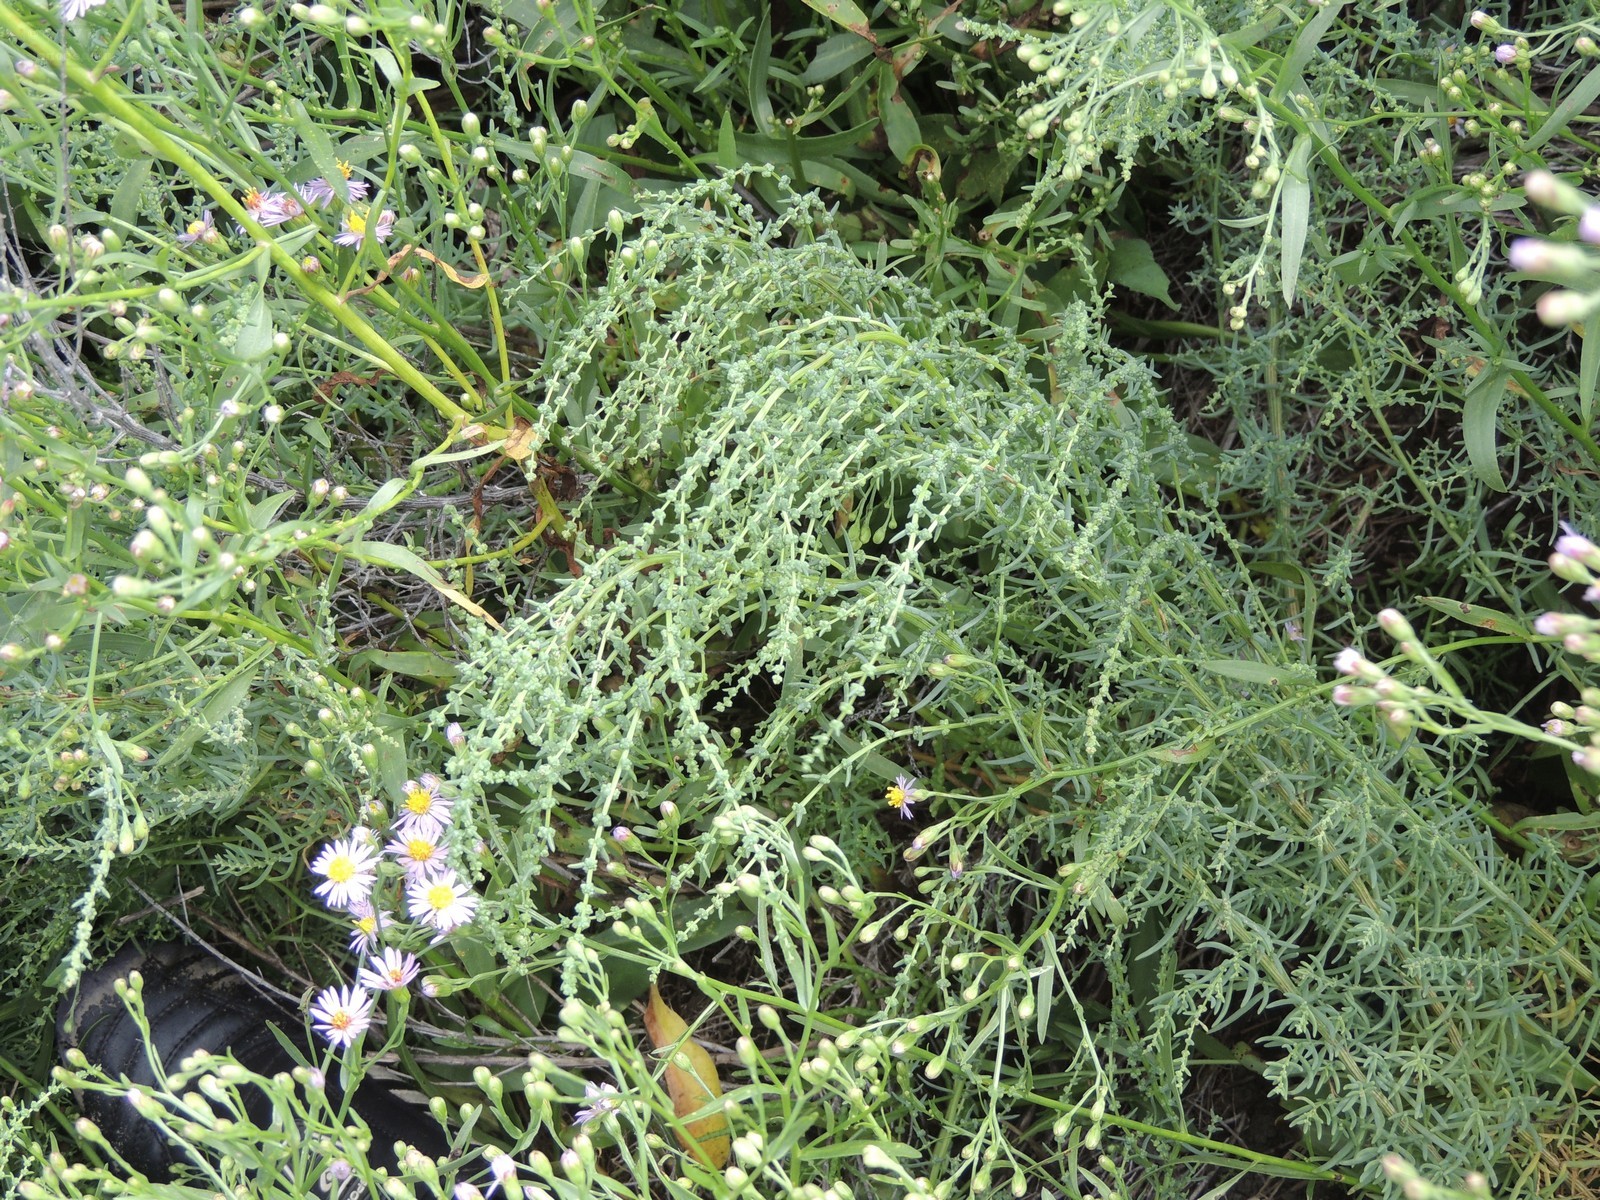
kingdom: Plantae
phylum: Tracheophyta
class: Magnoliopsida
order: Caryophyllales
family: Amaranthaceae
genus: Suaeda
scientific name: Suaeda acuminata
